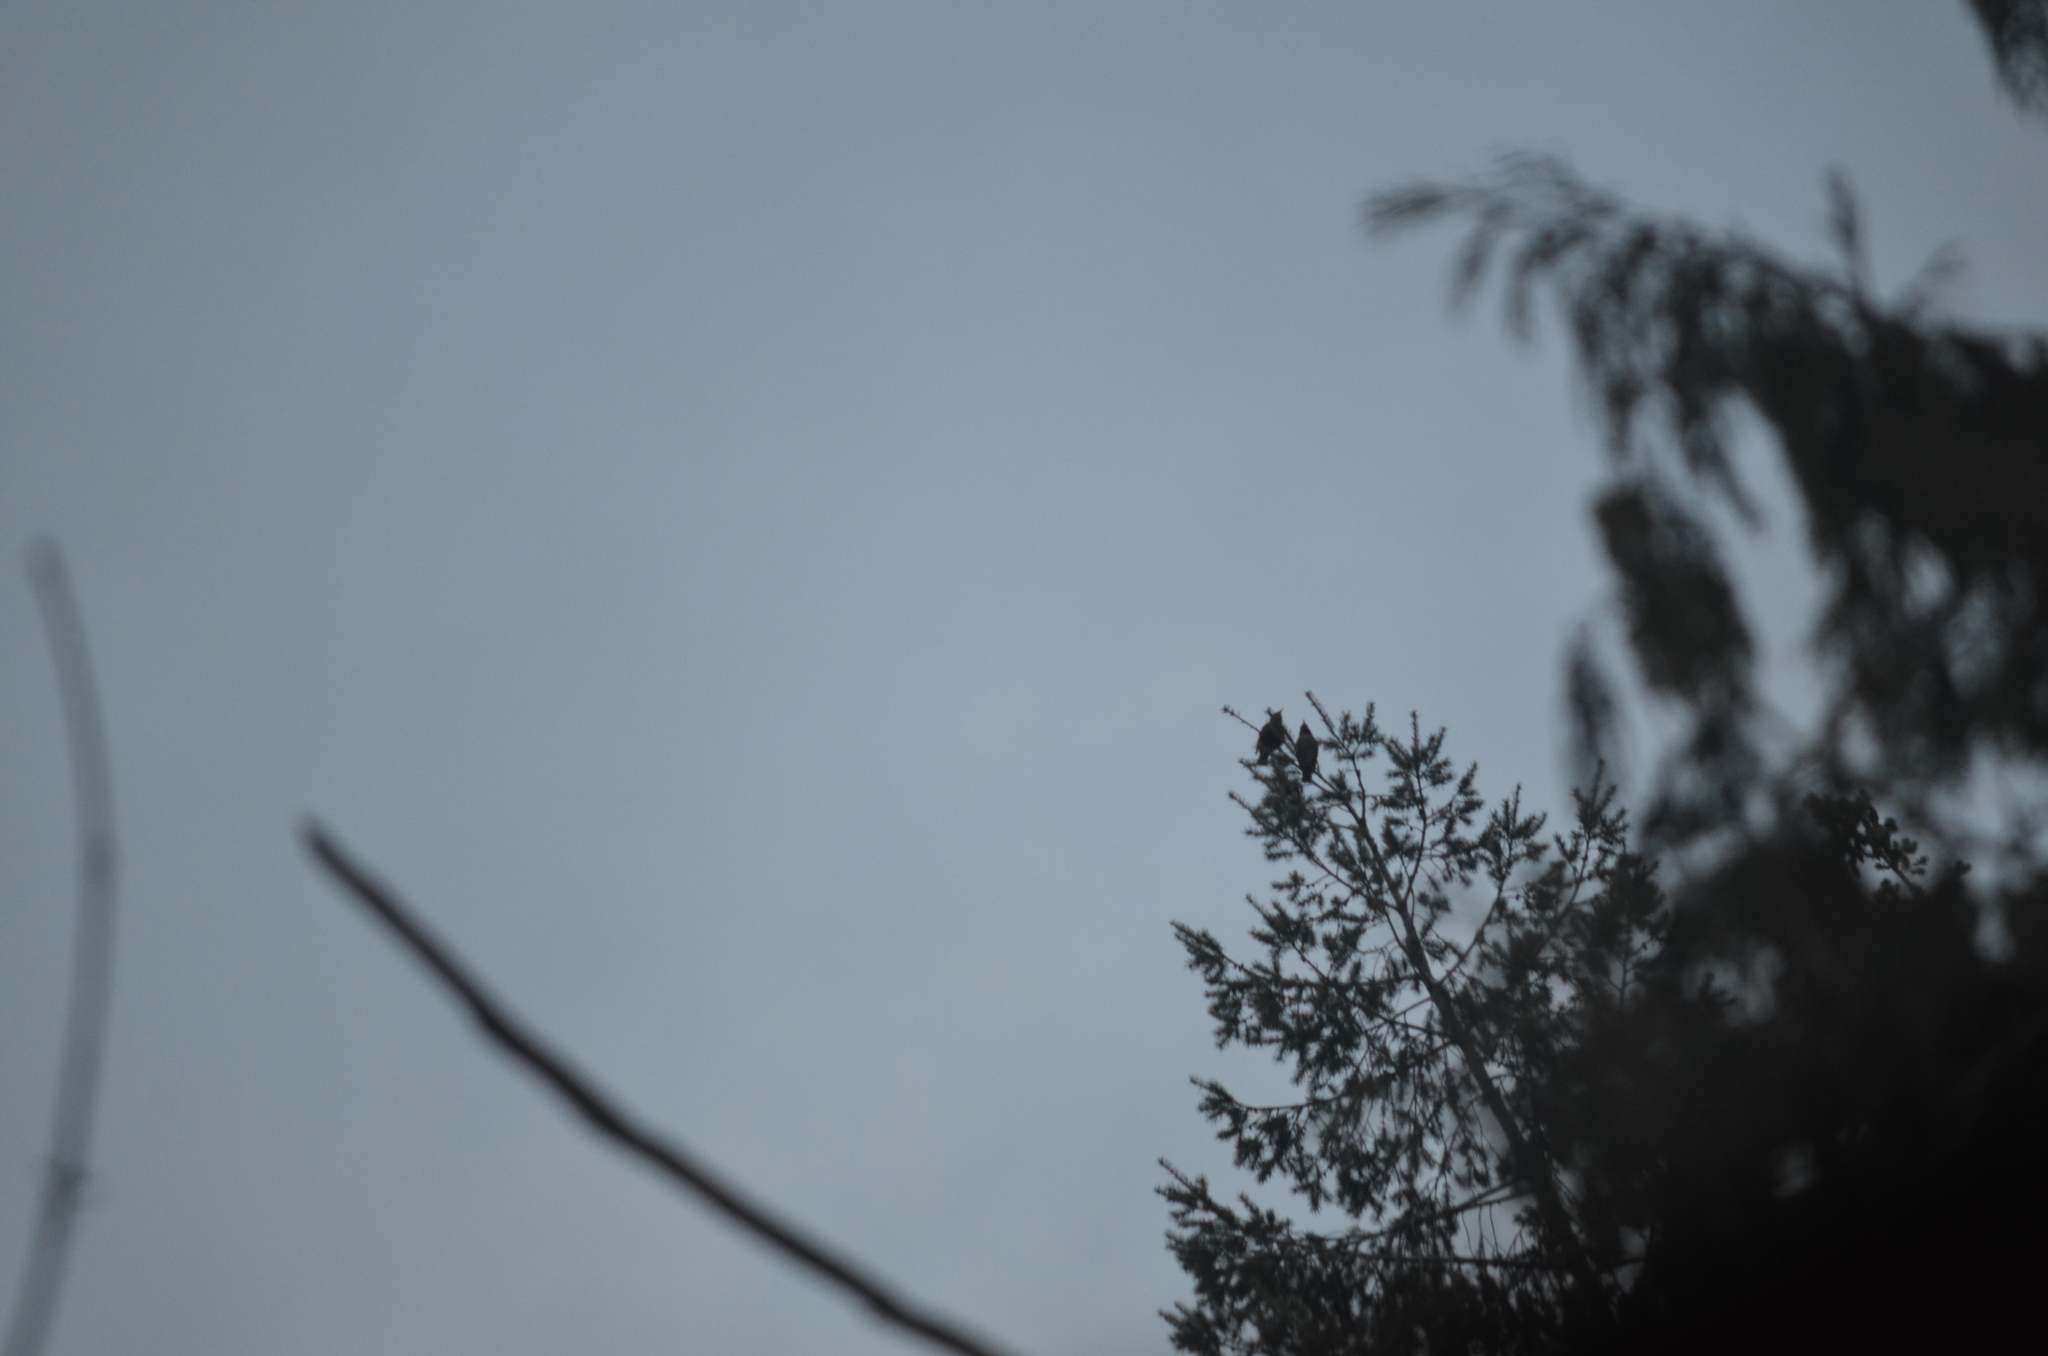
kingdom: Animalia
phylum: Chordata
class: Aves
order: Passeriformes
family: Sturnidae
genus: Sturnus
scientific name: Sturnus vulgaris
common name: Common starling
